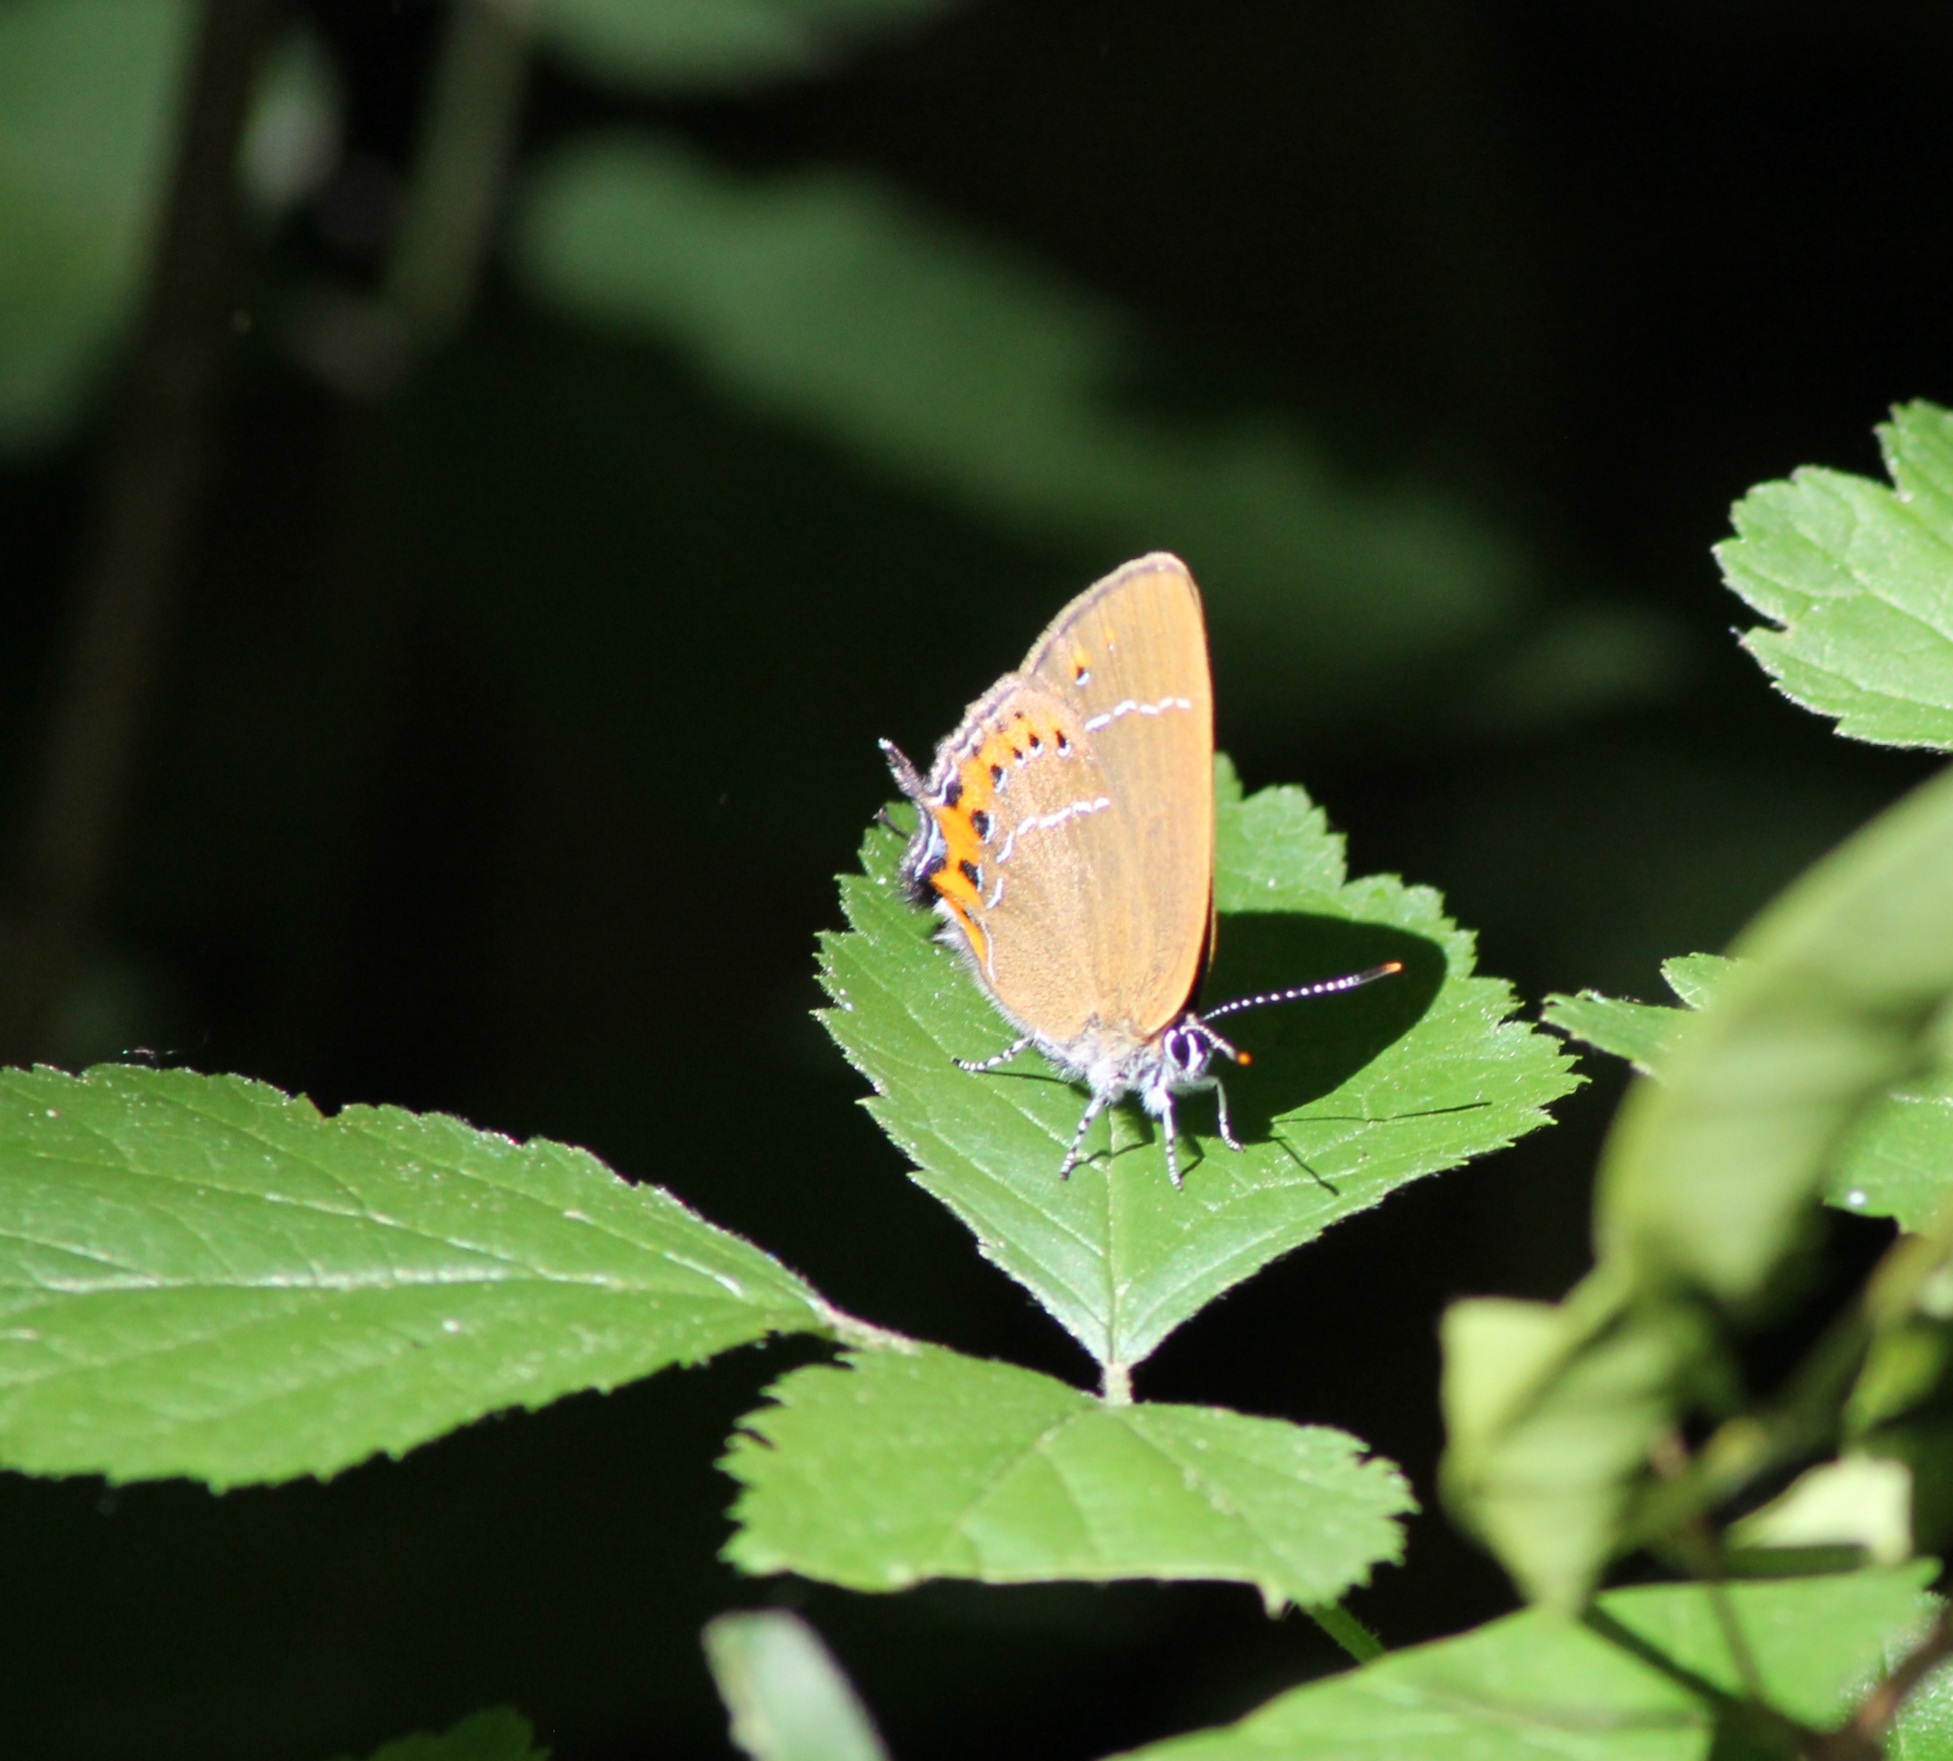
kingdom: Animalia
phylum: Arthropoda
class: Insecta
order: Lepidoptera
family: Lycaenidae
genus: Fixsenia
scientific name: Fixsenia pruni
